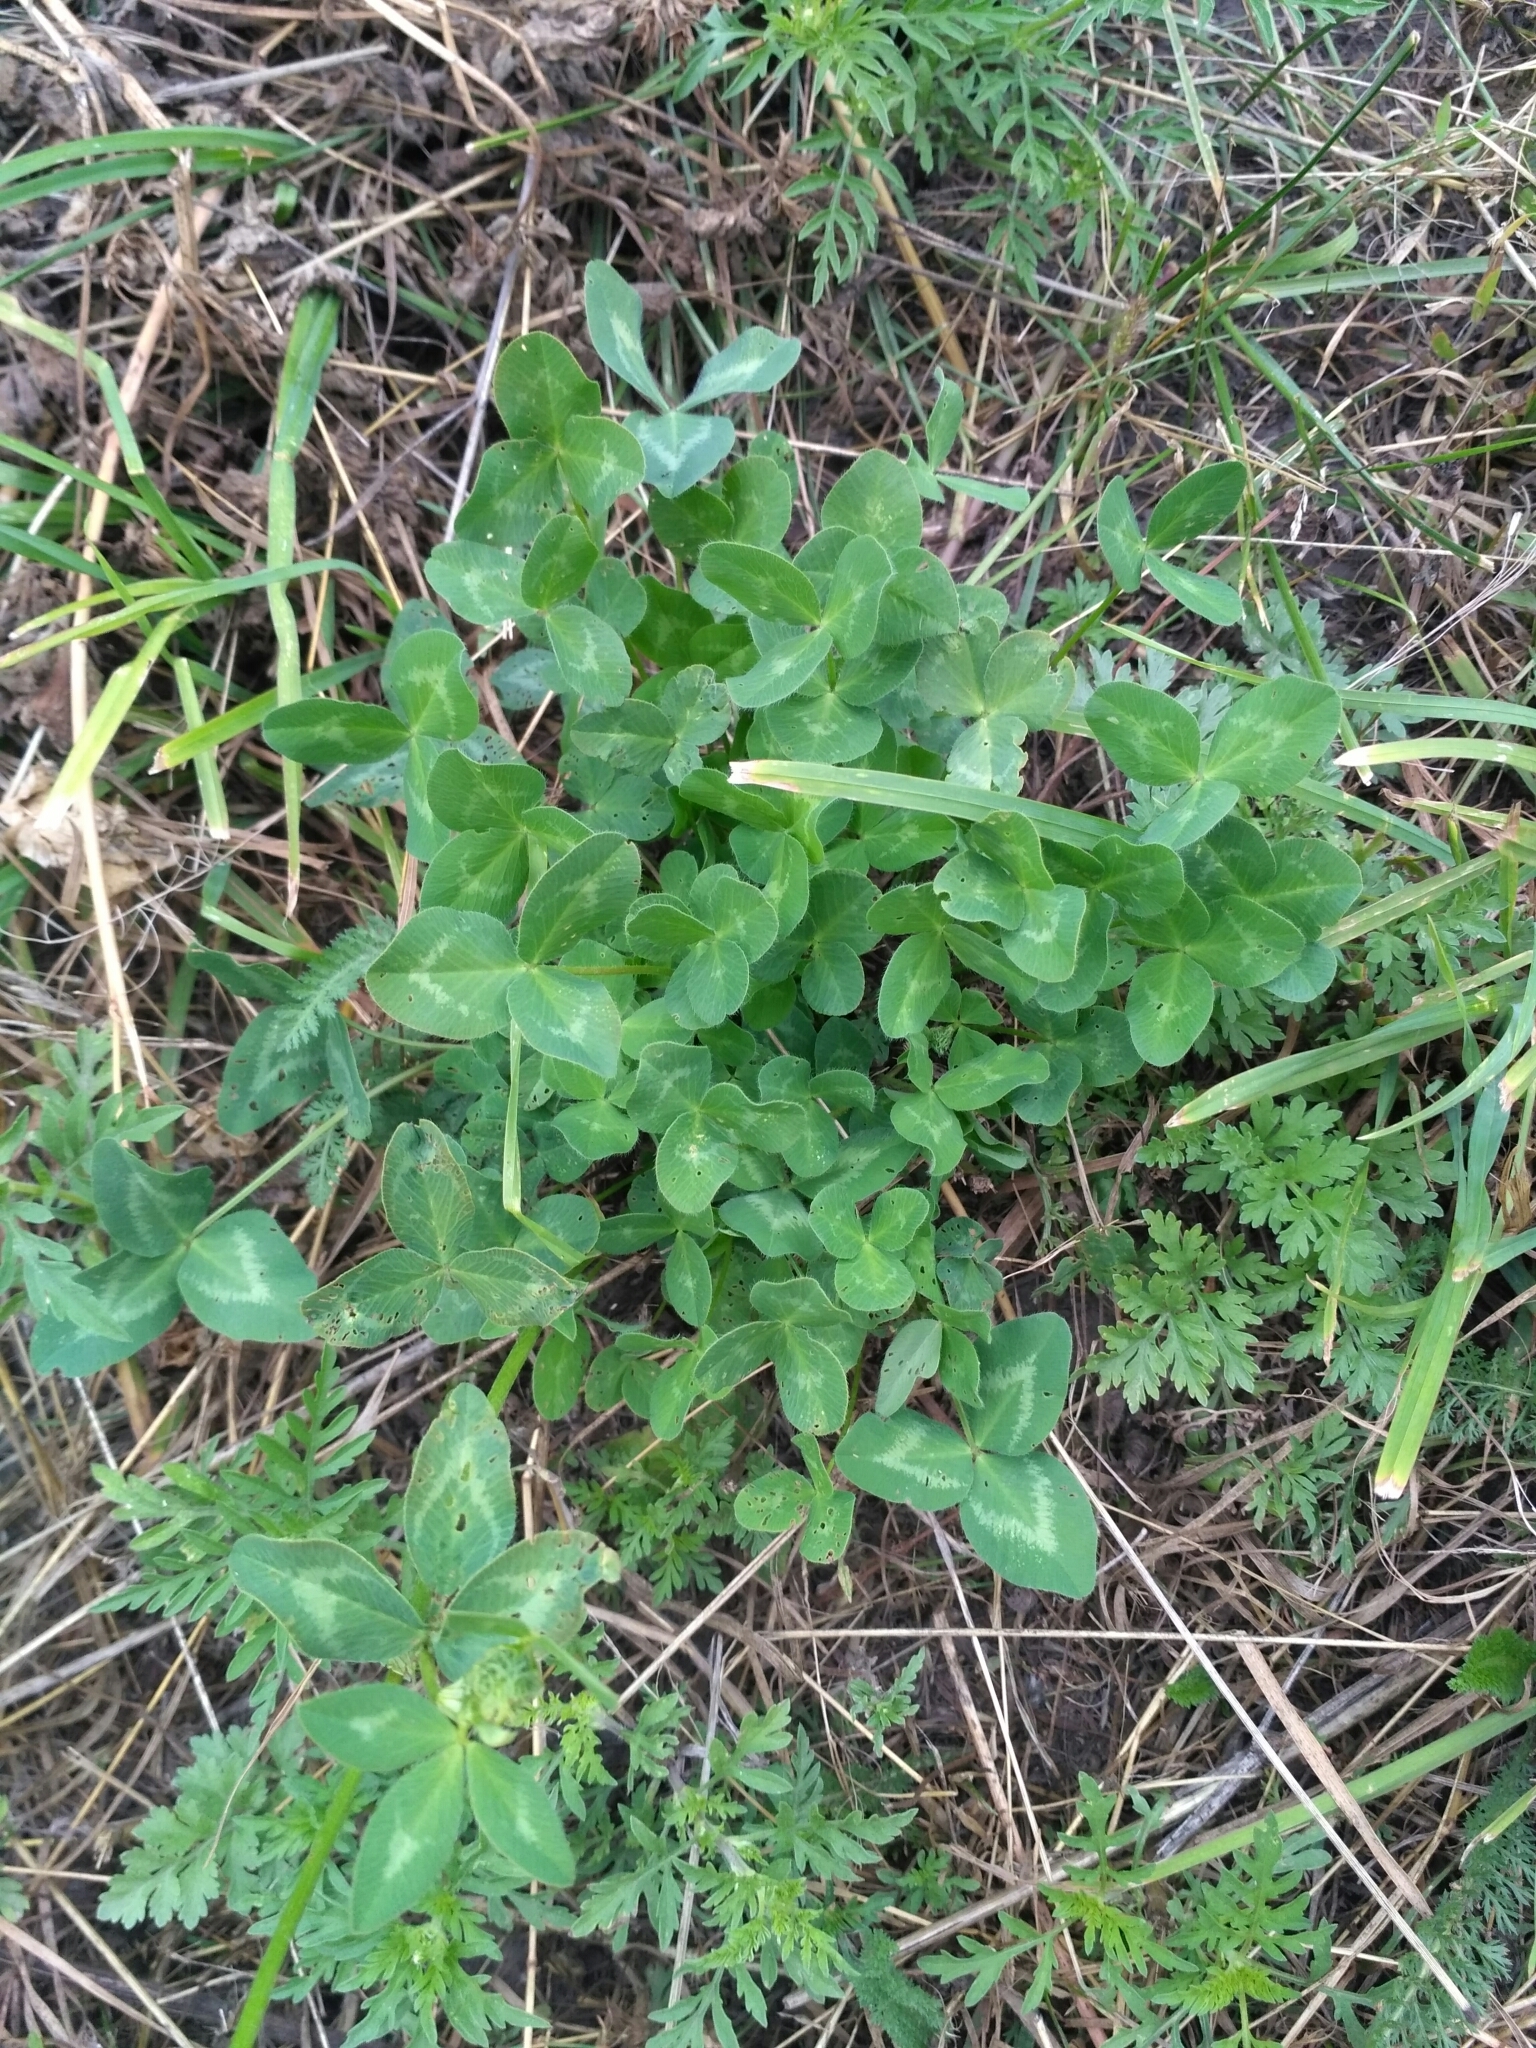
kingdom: Plantae
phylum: Tracheophyta
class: Magnoliopsida
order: Fabales
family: Fabaceae
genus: Trifolium
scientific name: Trifolium pratense
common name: Red clover
